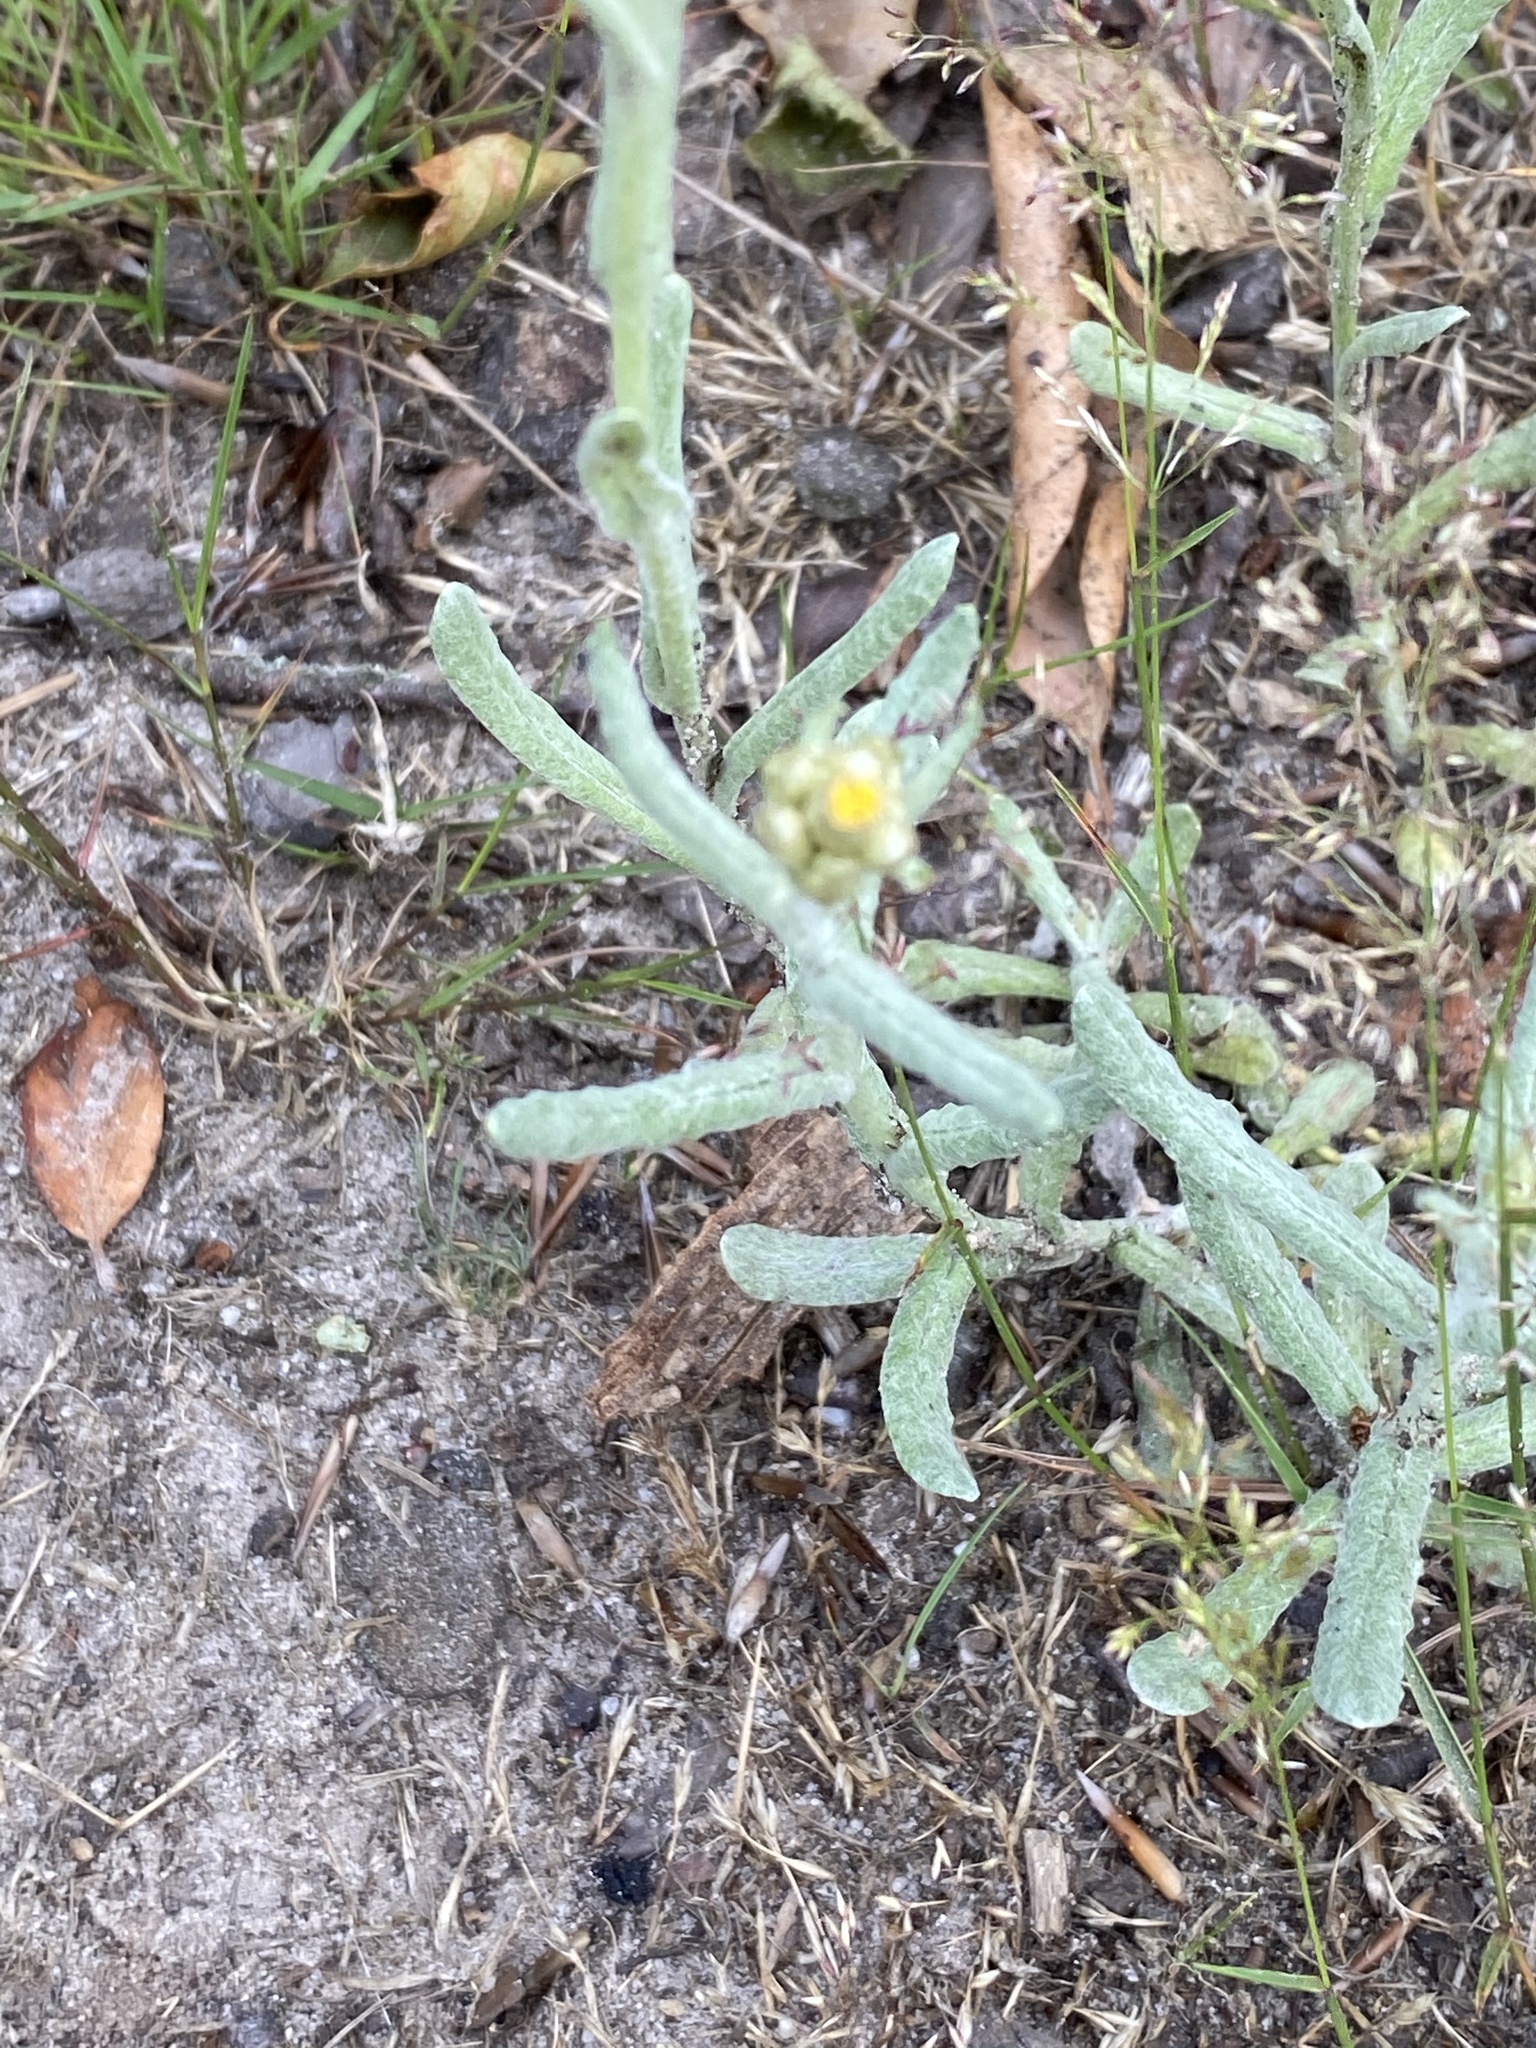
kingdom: Plantae
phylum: Tracheophyta
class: Magnoliopsida
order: Asterales
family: Asteraceae
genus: Helichrysum
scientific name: Helichrysum luteoalbum
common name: Daisy
